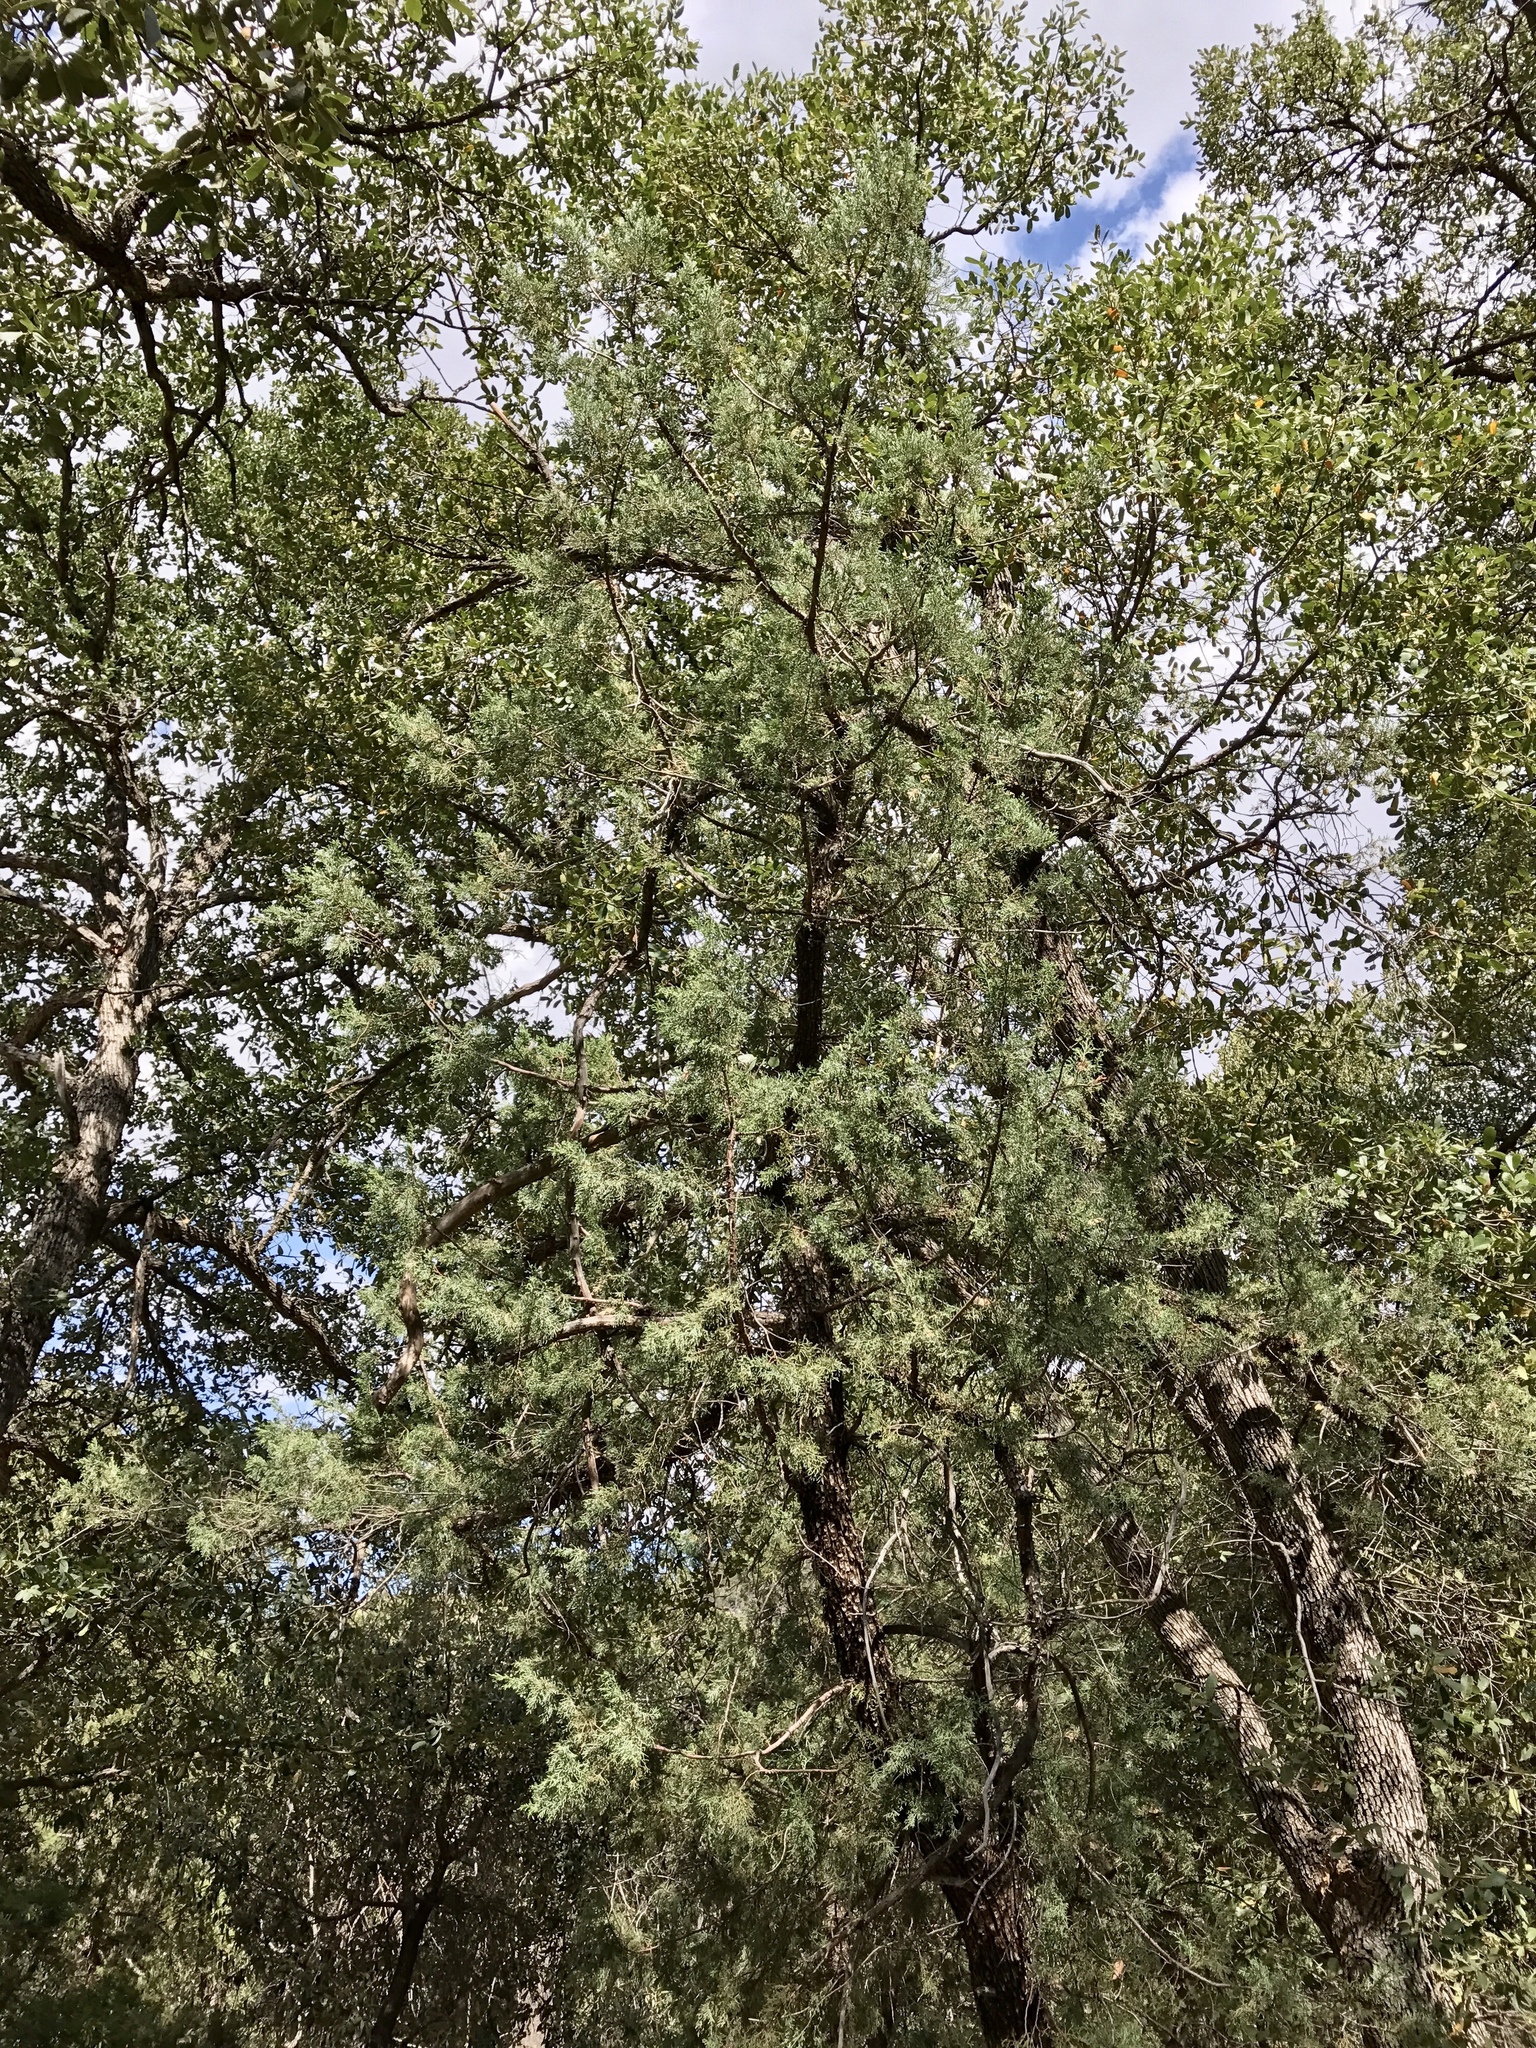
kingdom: Plantae
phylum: Tracheophyta
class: Pinopsida
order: Pinales
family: Cupressaceae
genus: Juniperus
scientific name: Juniperus deppeana
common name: Alligator juniper
